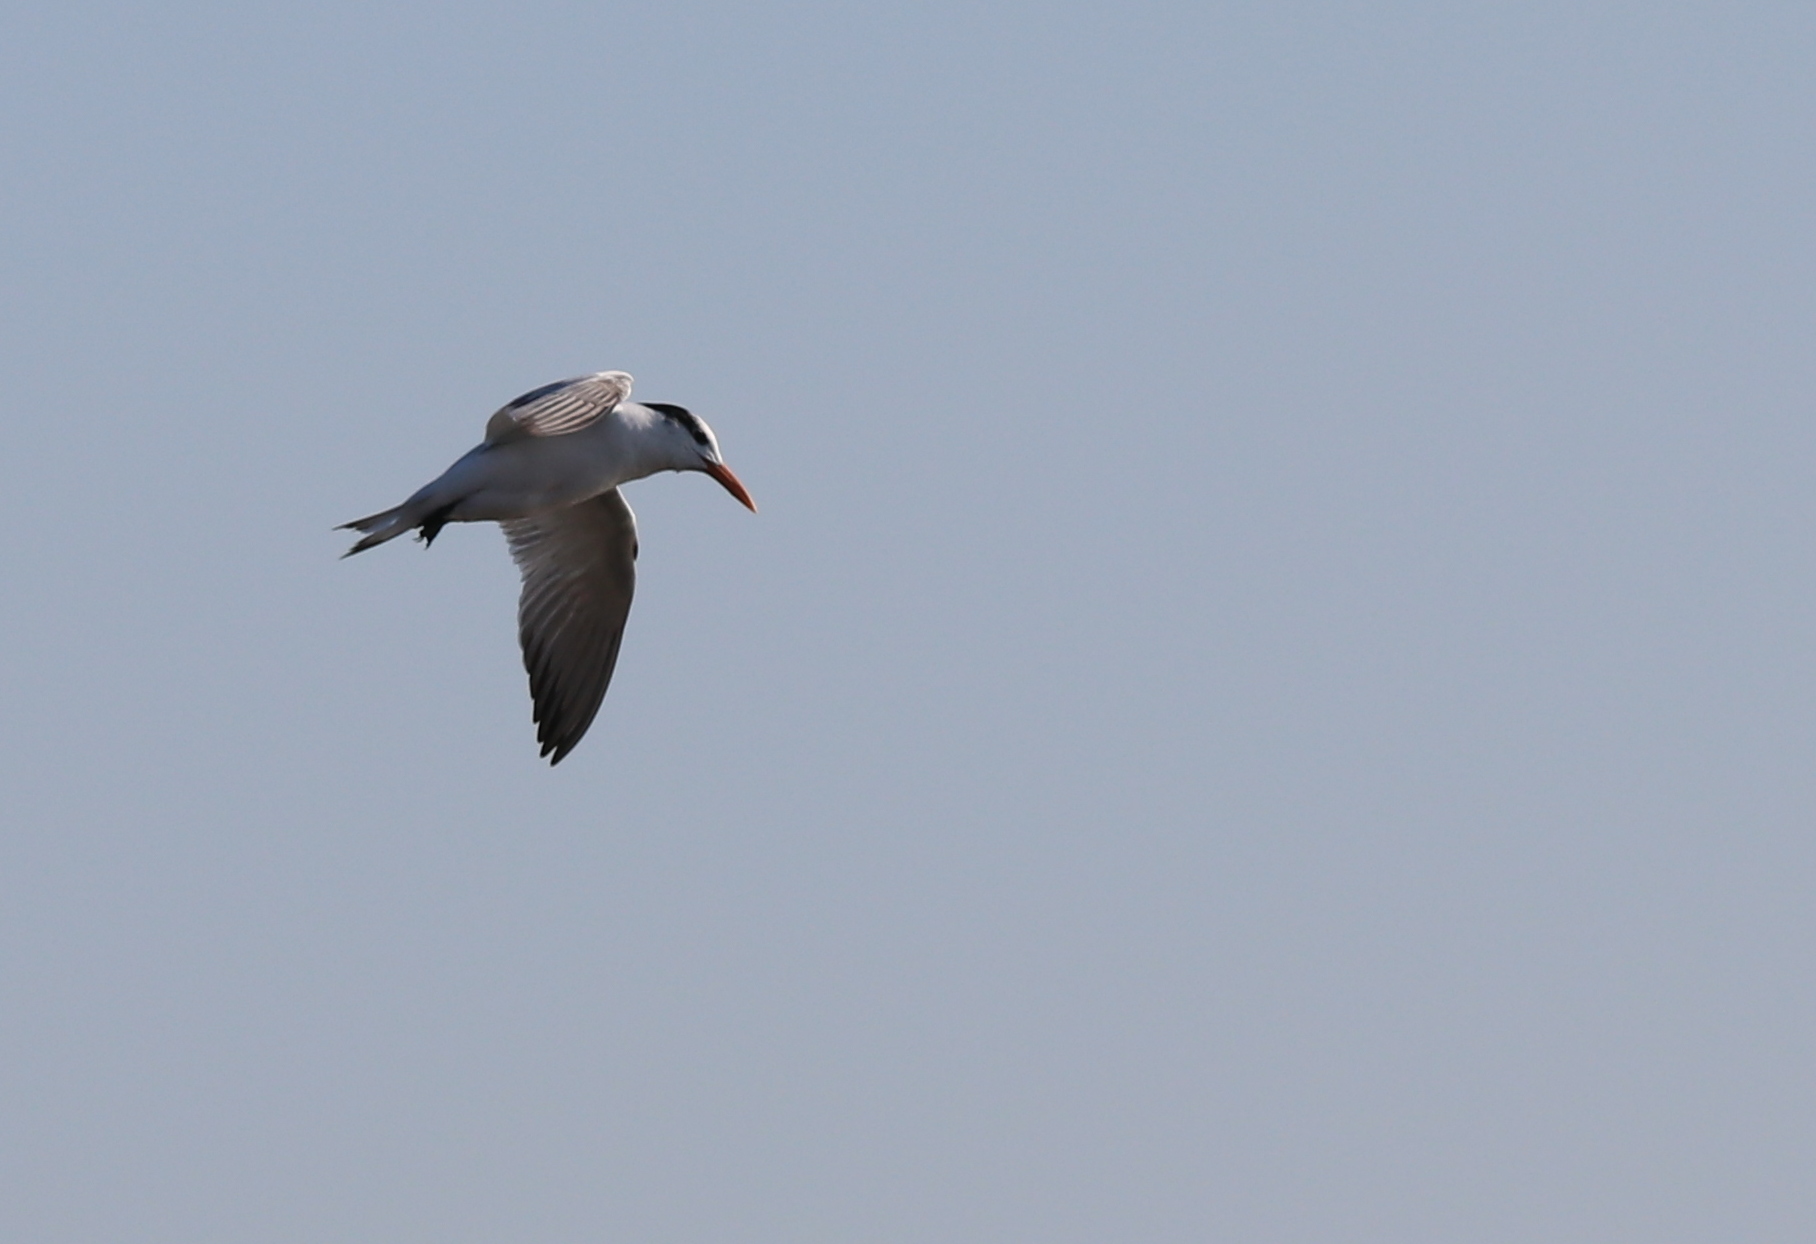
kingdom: Animalia
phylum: Chordata
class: Aves
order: Charadriiformes
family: Laridae
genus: Thalasseus
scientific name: Thalasseus maximus
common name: Royal tern
